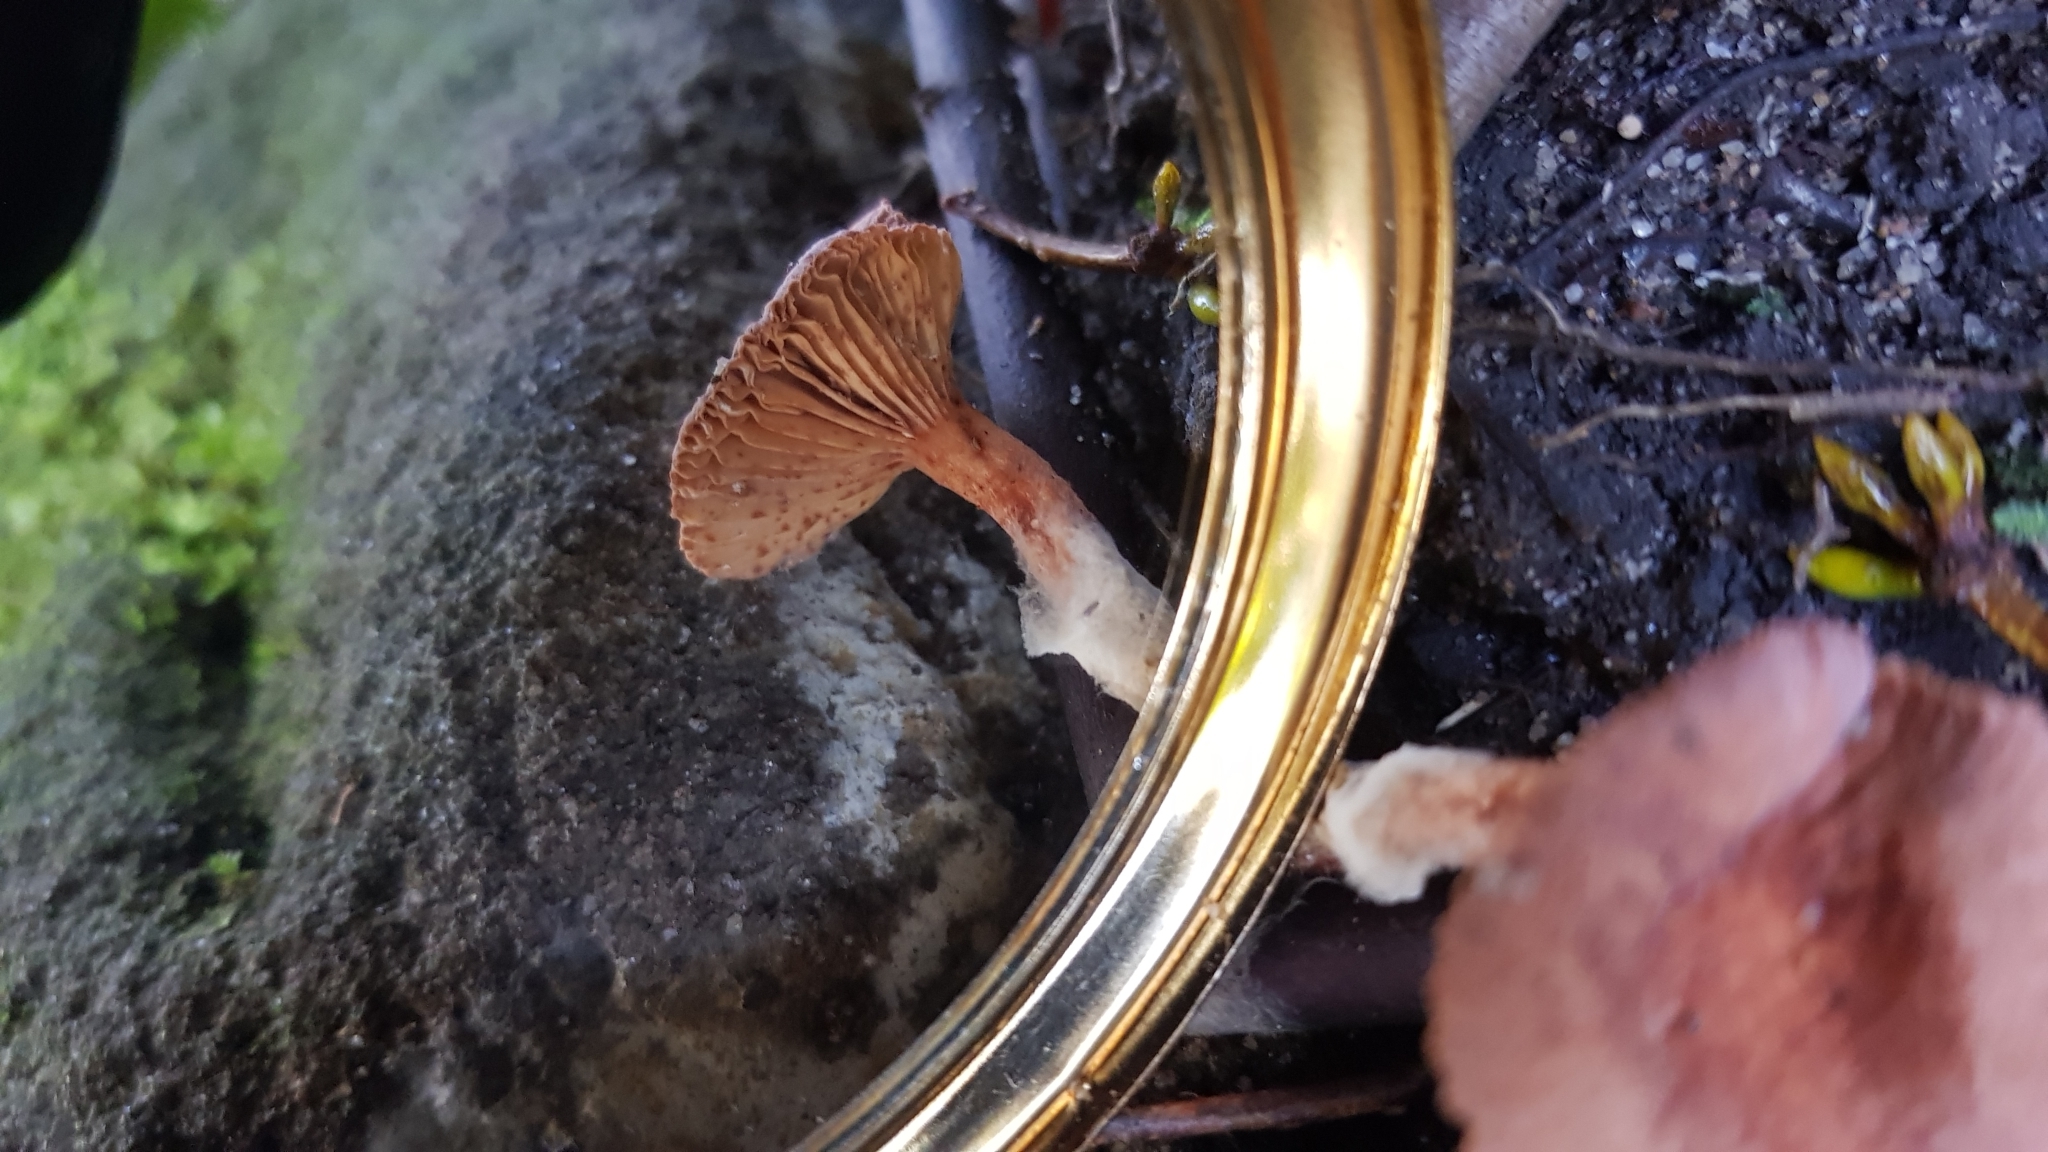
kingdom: Fungi
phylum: Basidiomycota
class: Agaricomycetes
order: Russulales
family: Russulaceae
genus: Lactarius
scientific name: Lactarius eucalypti
